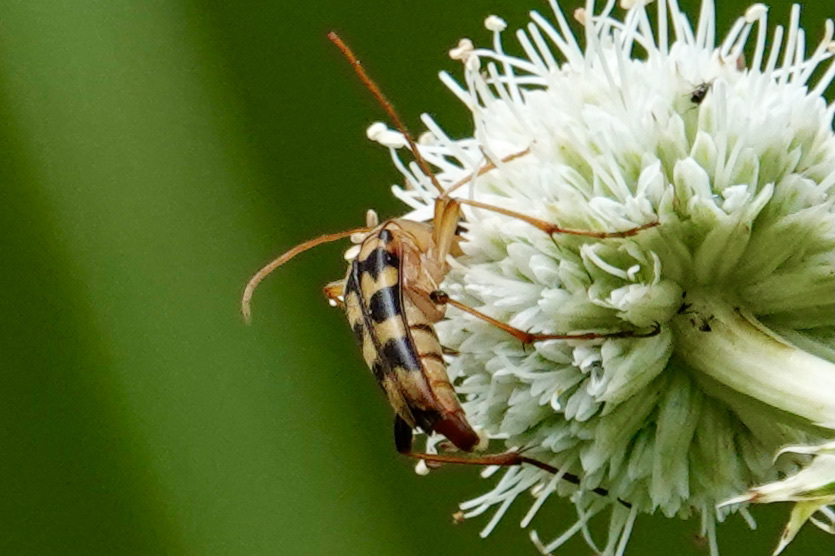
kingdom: Animalia
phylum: Arthropoda
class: Insecta
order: Coleoptera
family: Cerambycidae
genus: Strangalia
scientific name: Strangalia luteicornis
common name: Yellow-horned flower longhorn beetle
